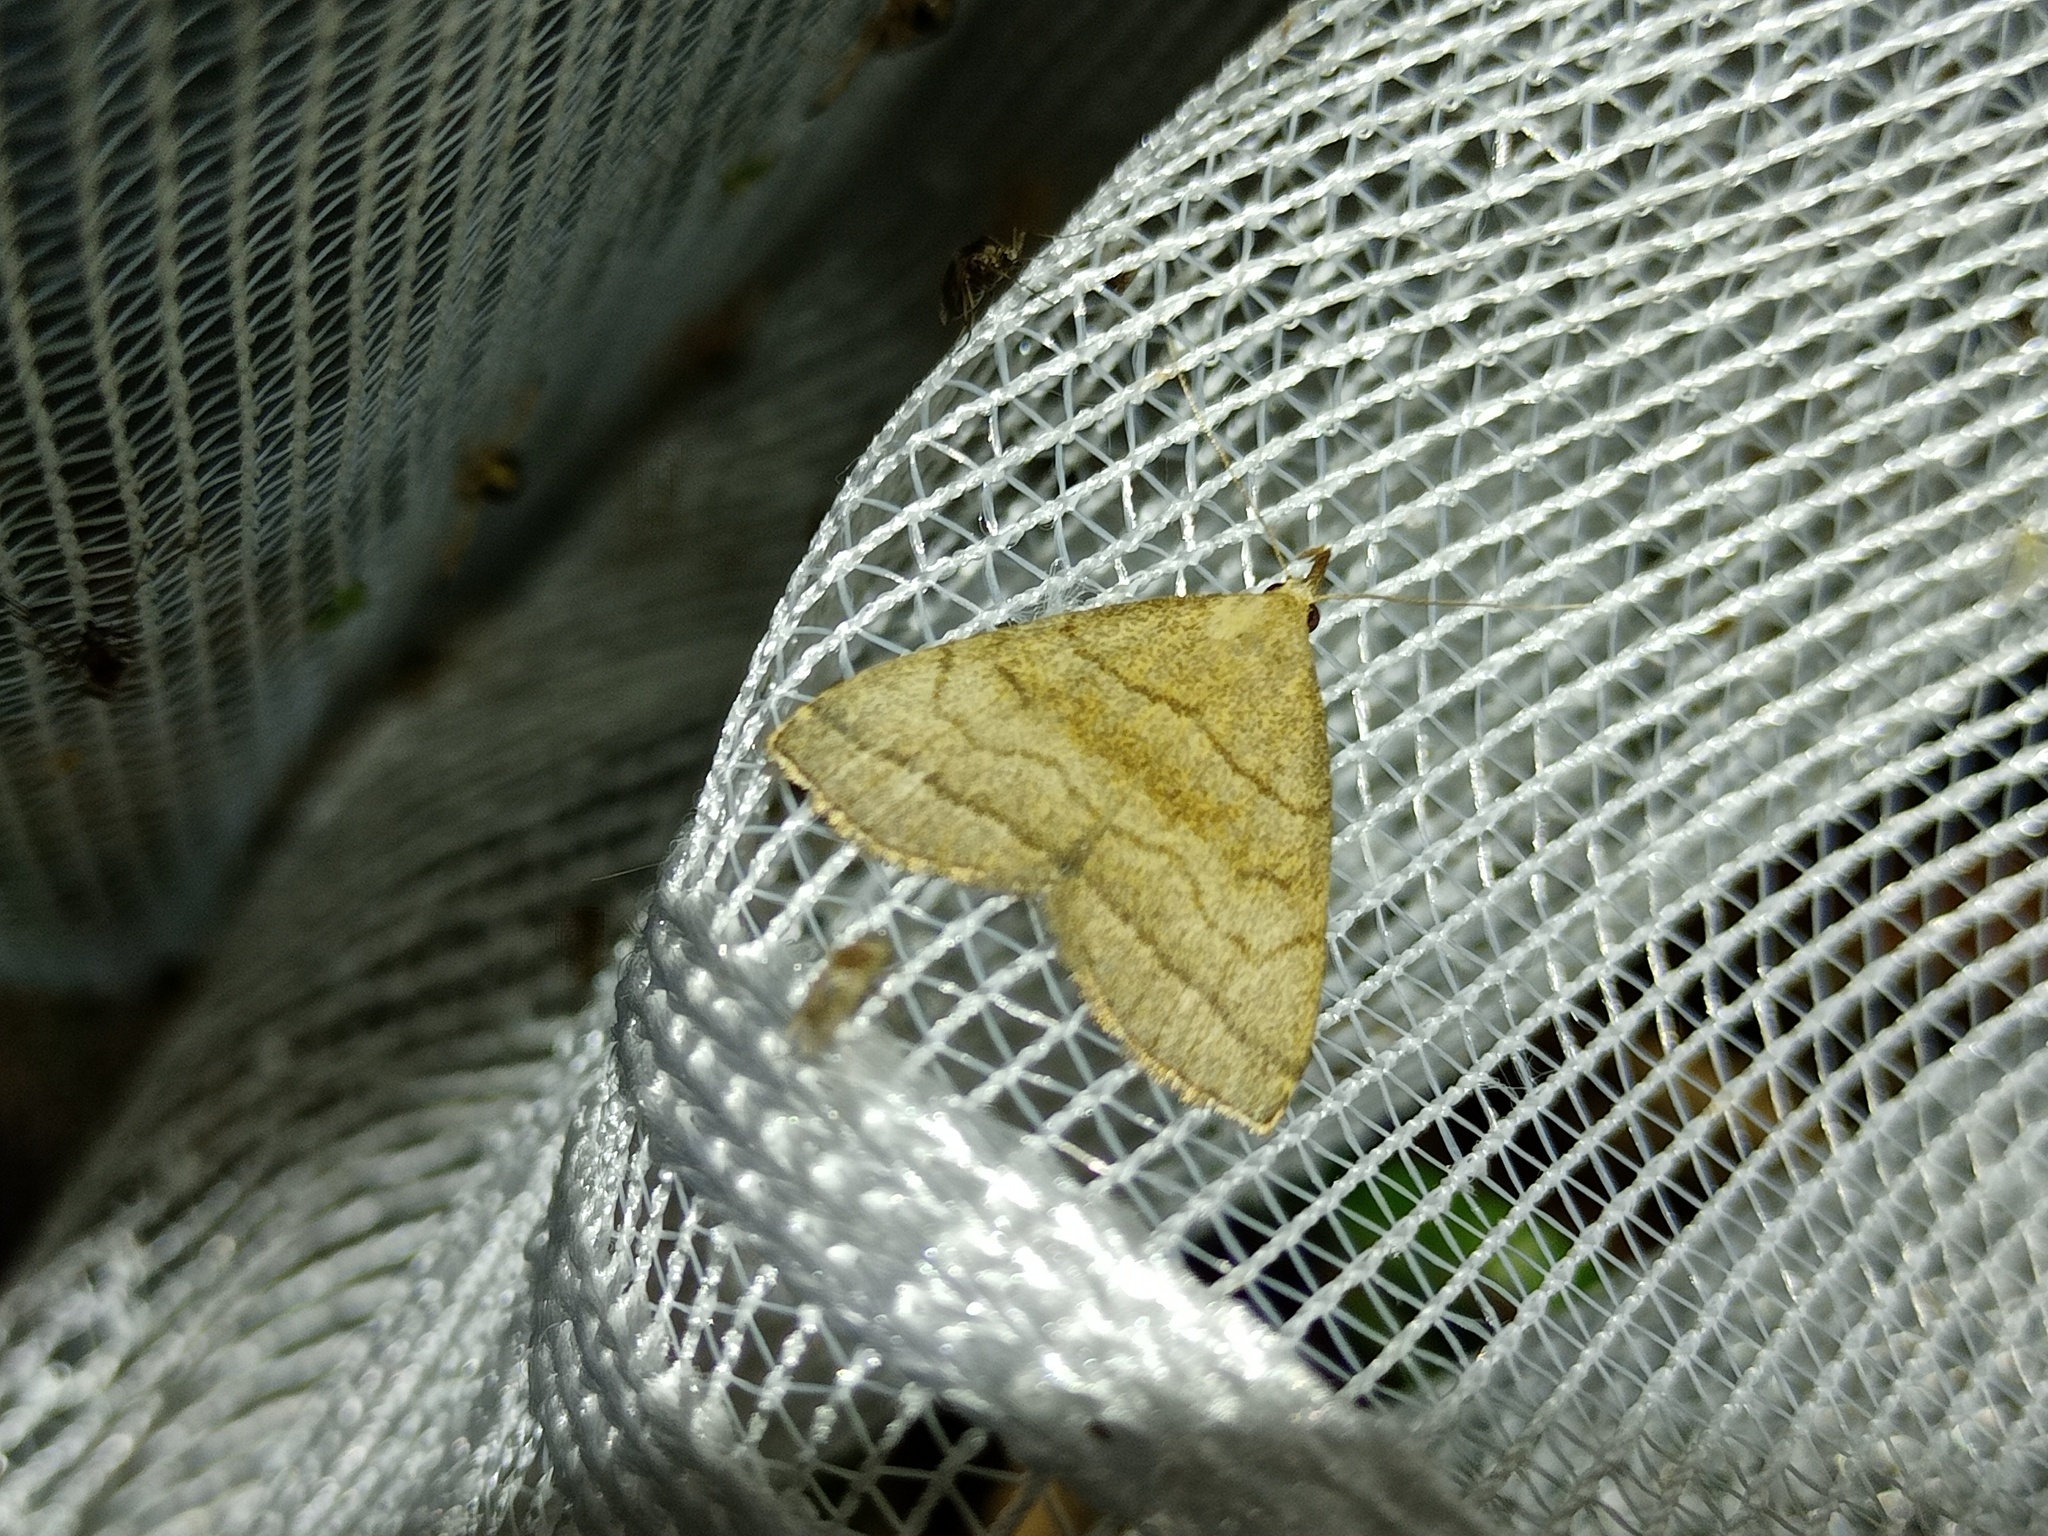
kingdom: Animalia
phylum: Arthropoda
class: Insecta
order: Lepidoptera
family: Erebidae
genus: Herminia
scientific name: Herminia tarsicrinalis
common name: Shaded fan-foot
